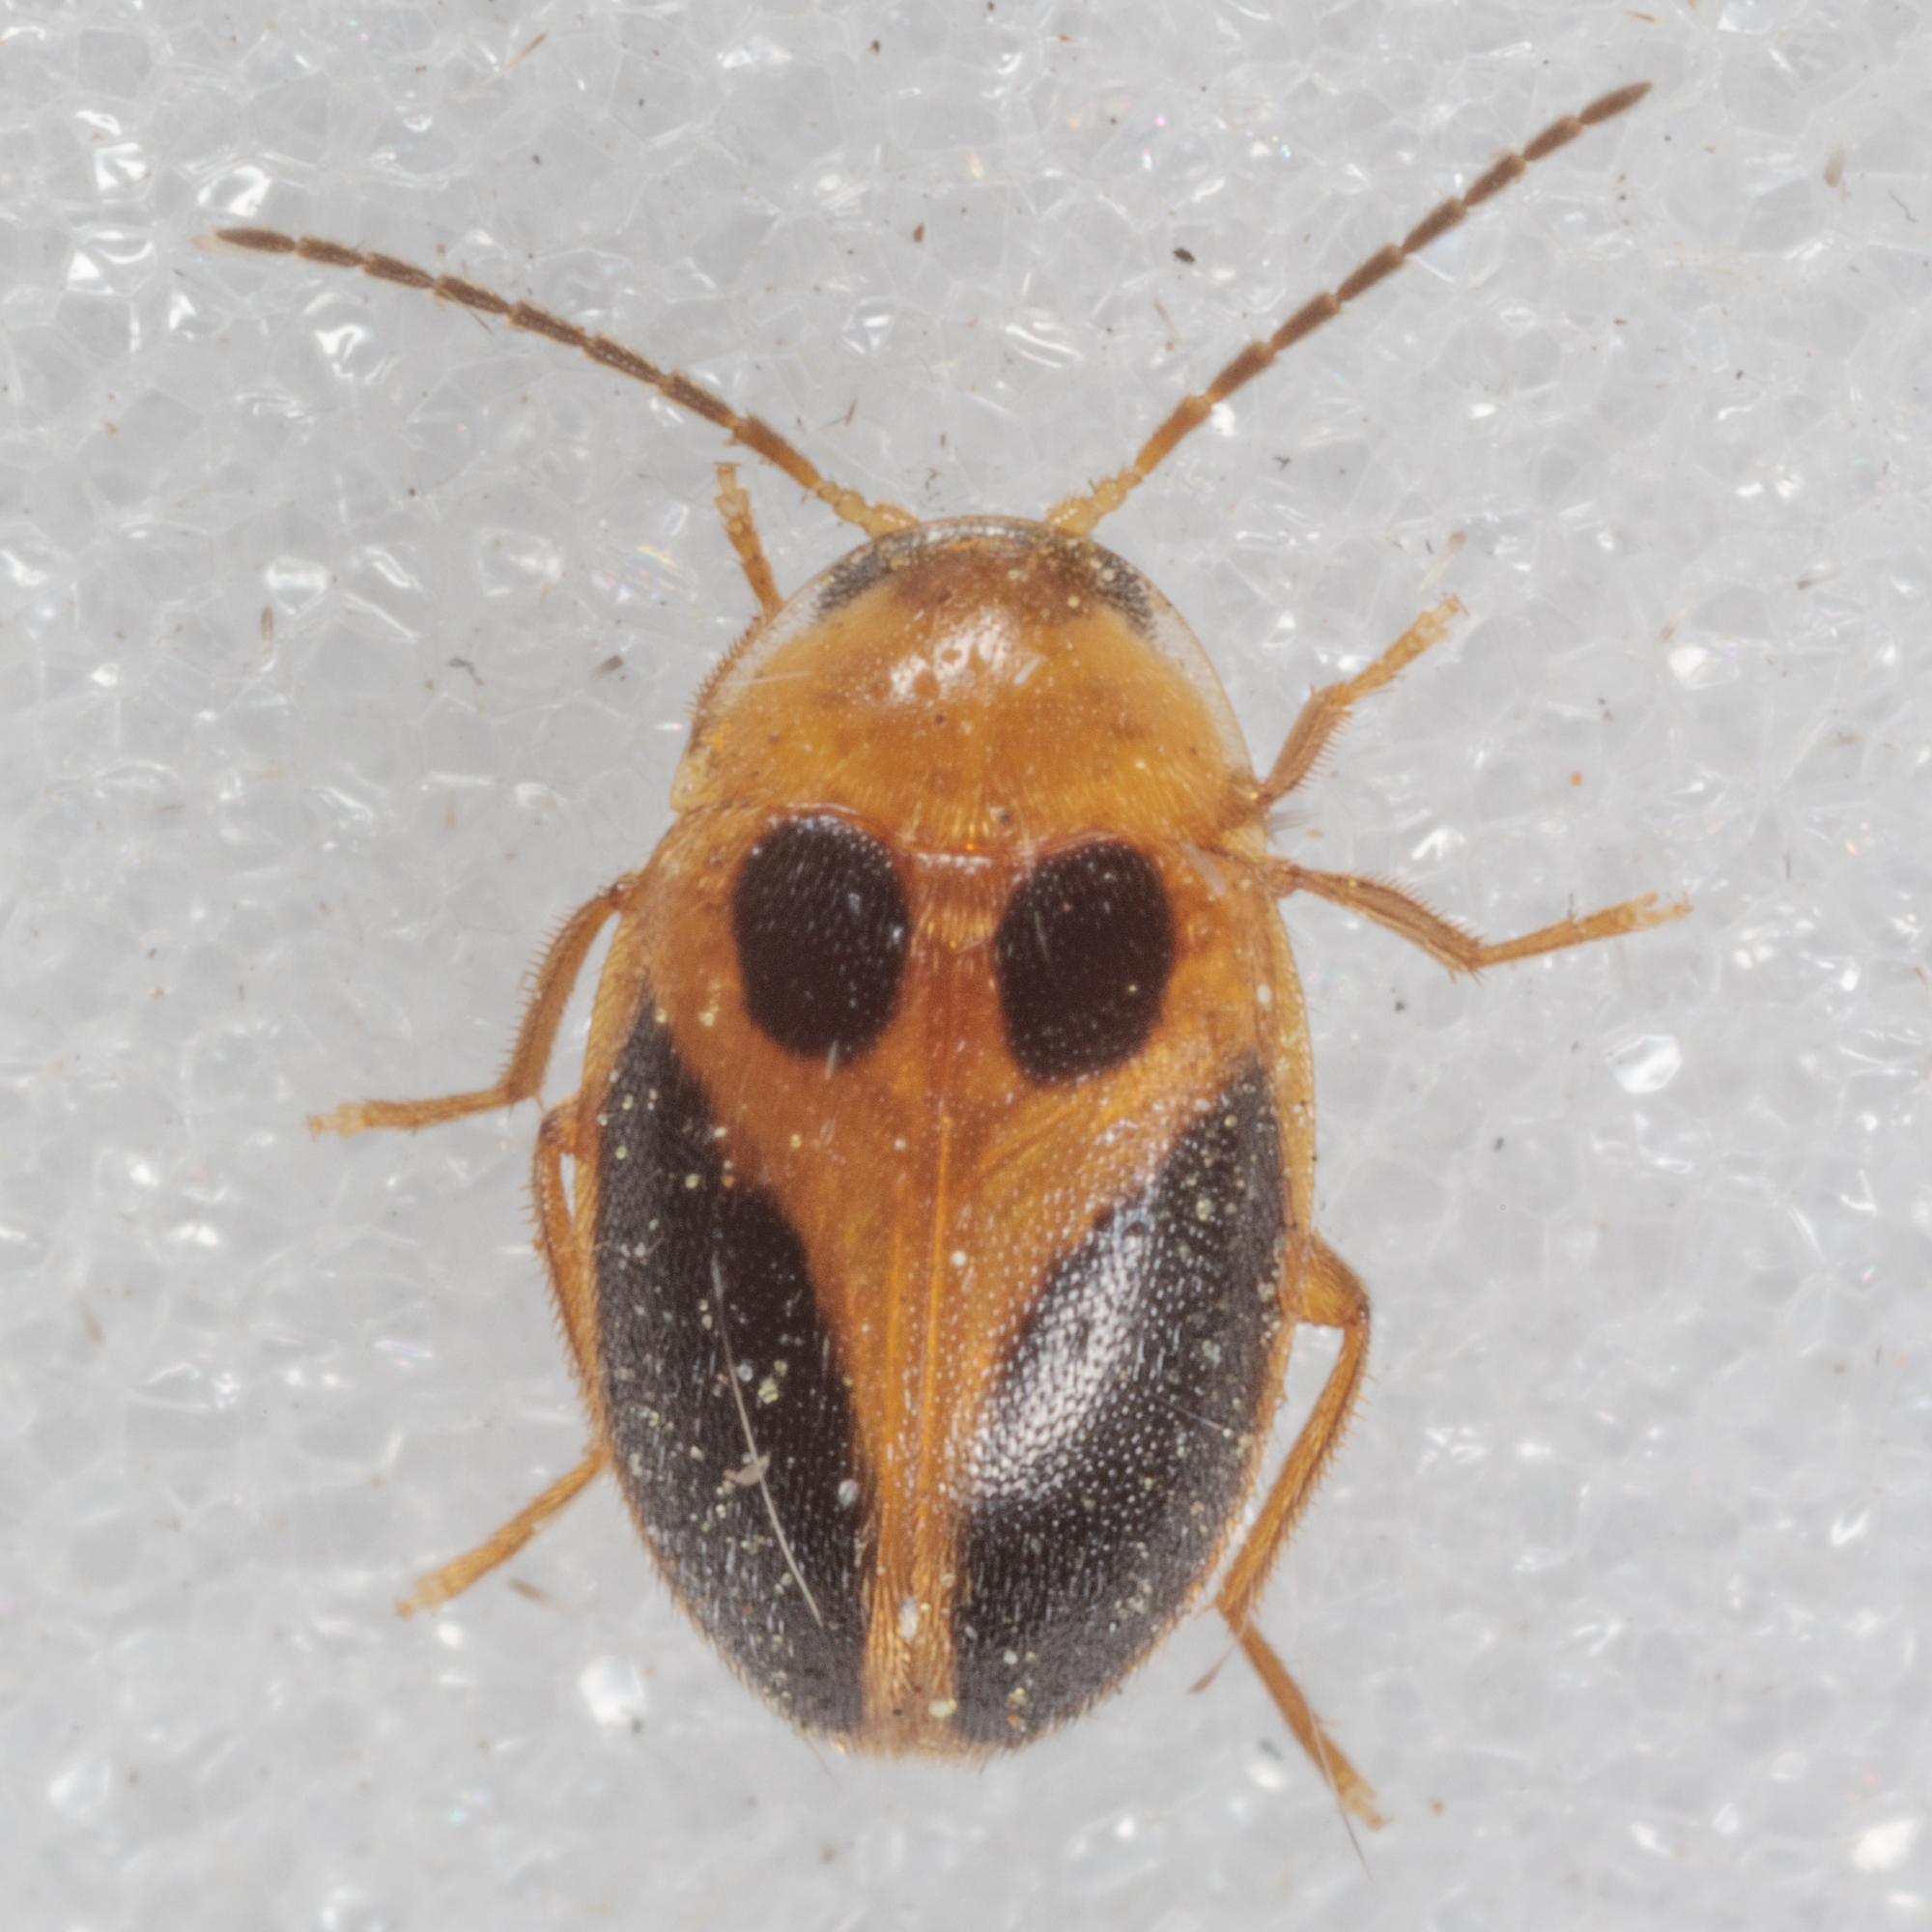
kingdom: Animalia
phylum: Arthropoda
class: Insecta
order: Coleoptera
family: Scirtidae
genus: Sacodes
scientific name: Sacodes pulchella
